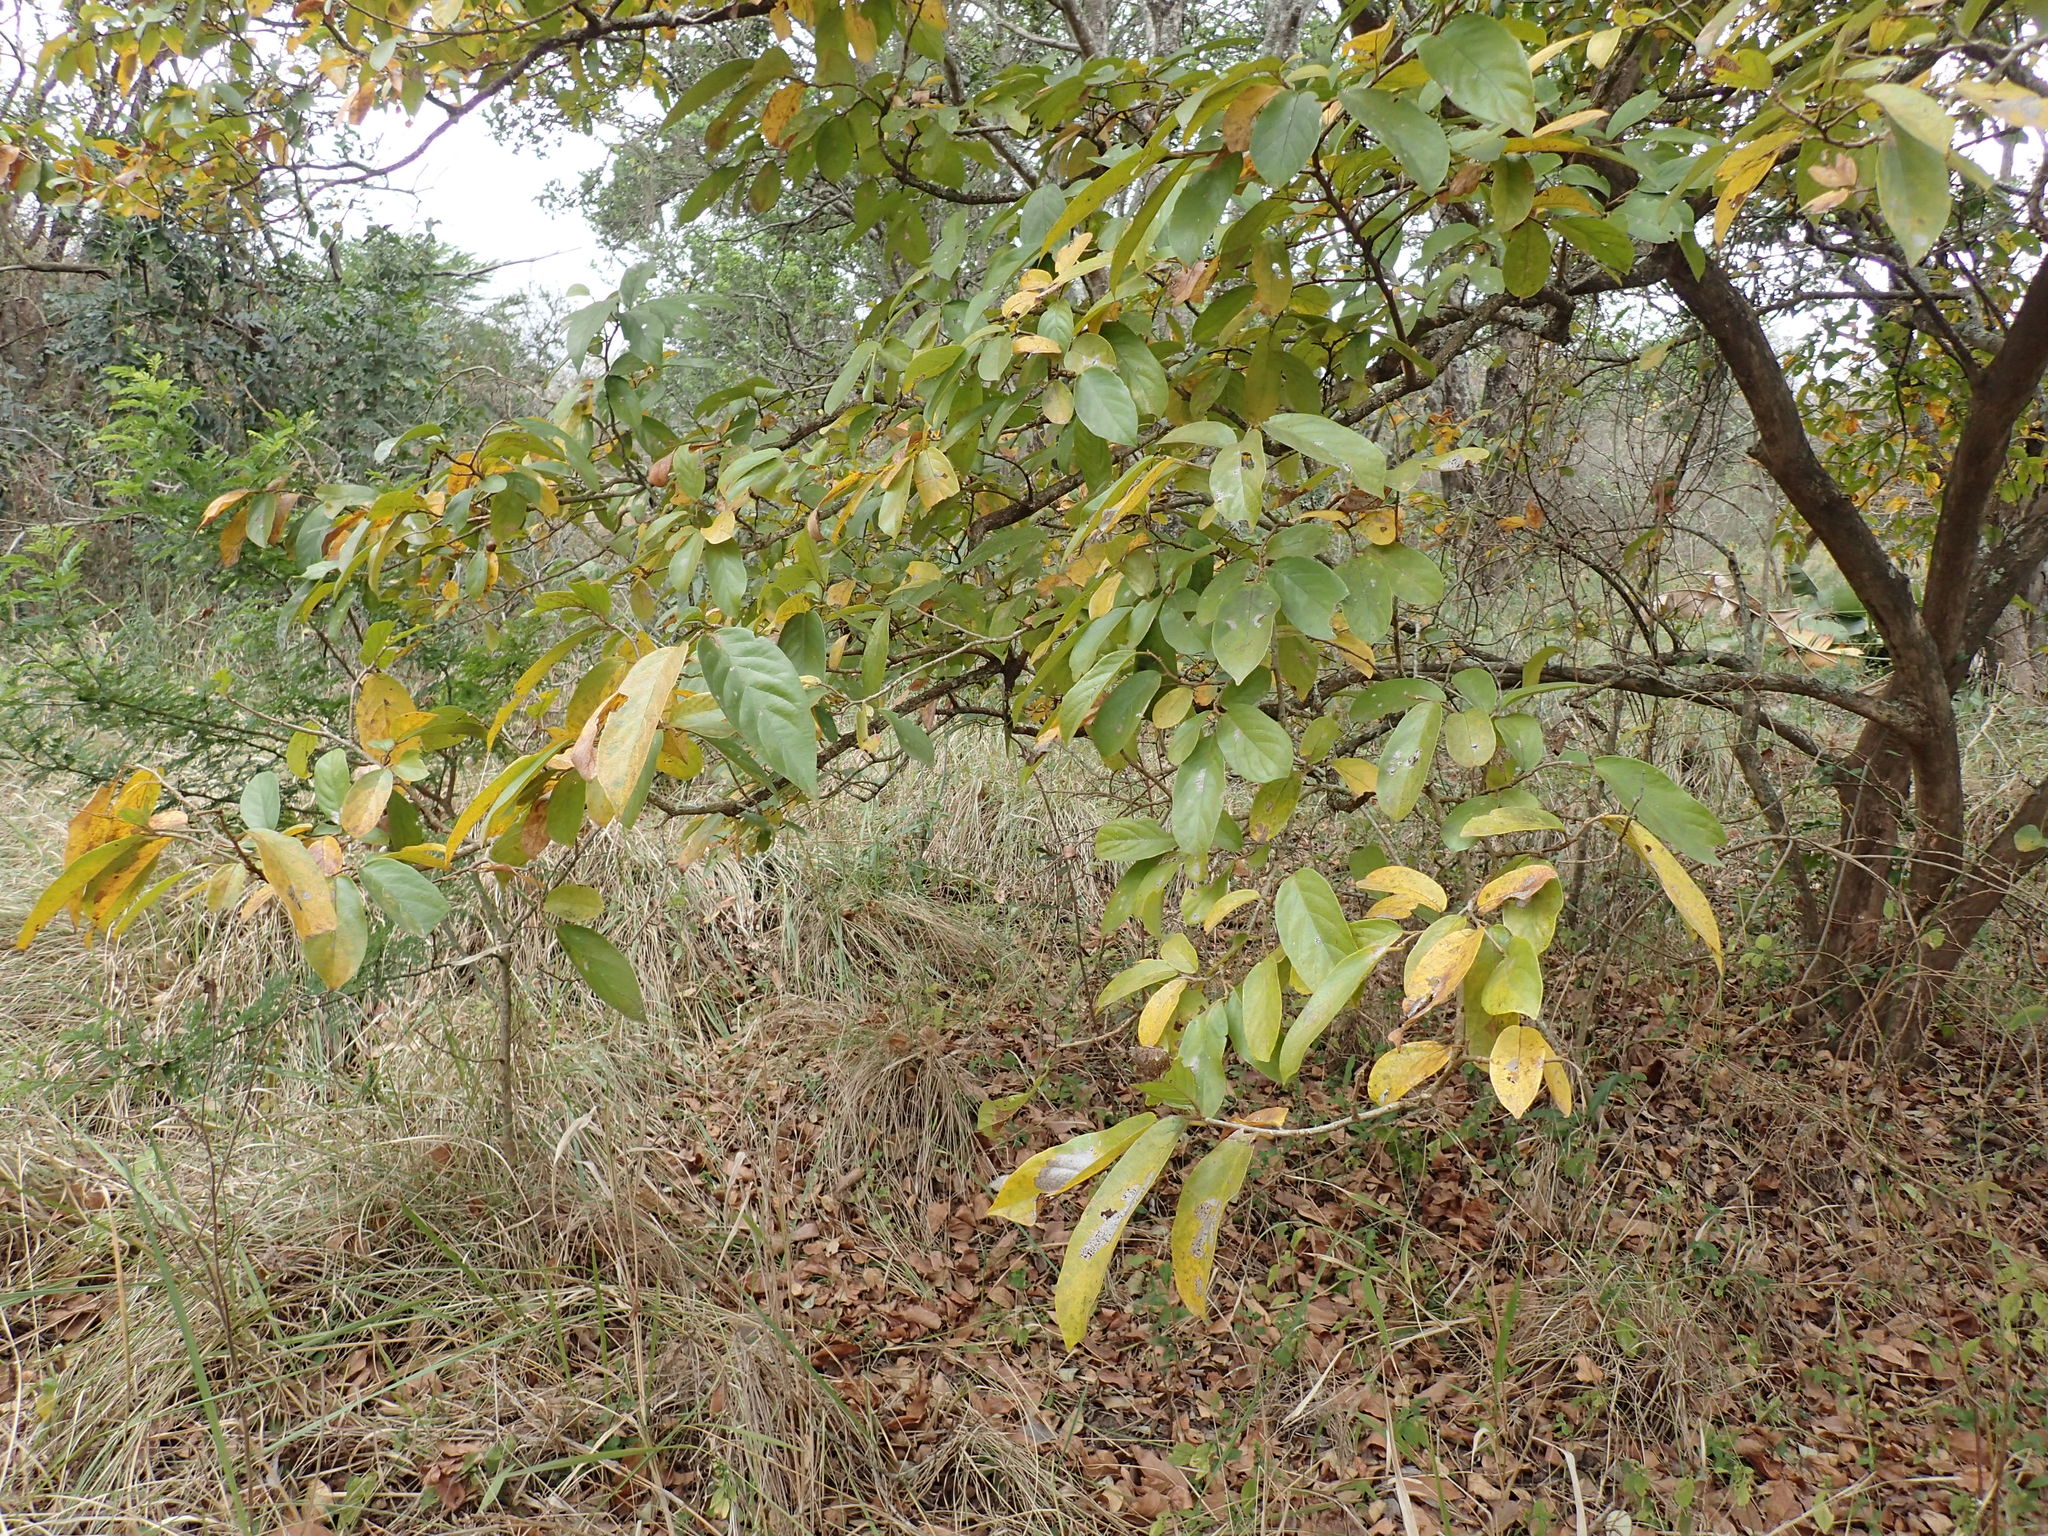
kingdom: Plantae
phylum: Tracheophyta
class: Magnoliopsida
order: Malpighiales
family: Phyllanthaceae
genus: Antidesma
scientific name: Antidesma venosum
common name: Tassel-berry
